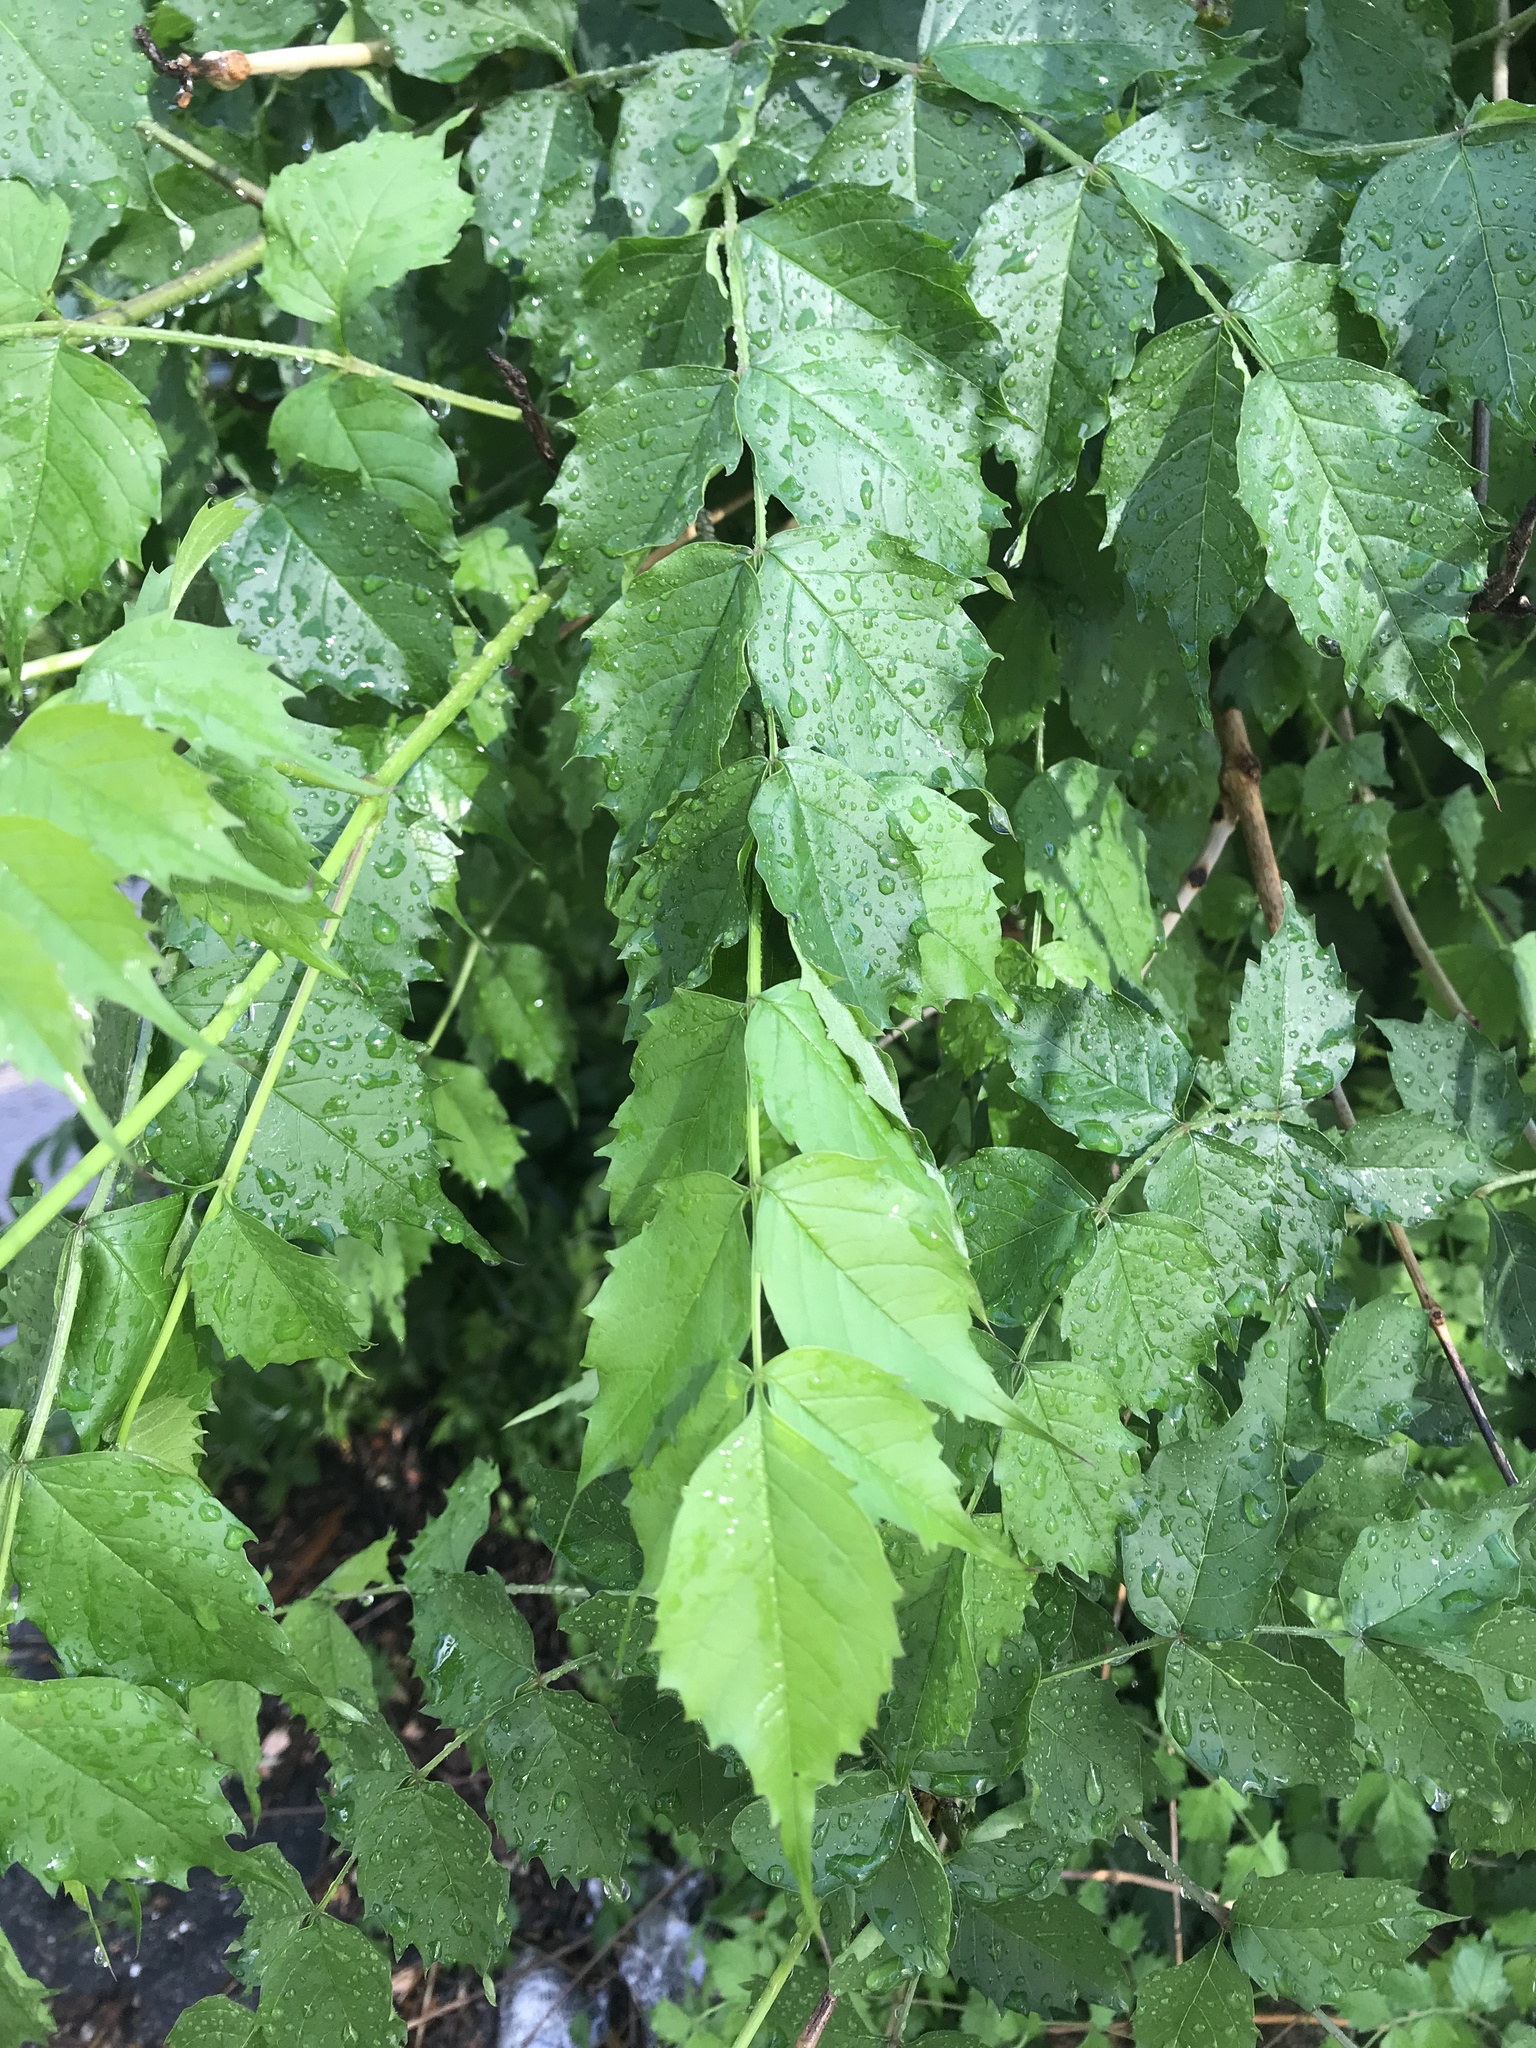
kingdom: Plantae
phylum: Tracheophyta
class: Magnoliopsida
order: Lamiales
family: Bignoniaceae
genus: Campsis
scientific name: Campsis radicans
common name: Trumpet-creeper
